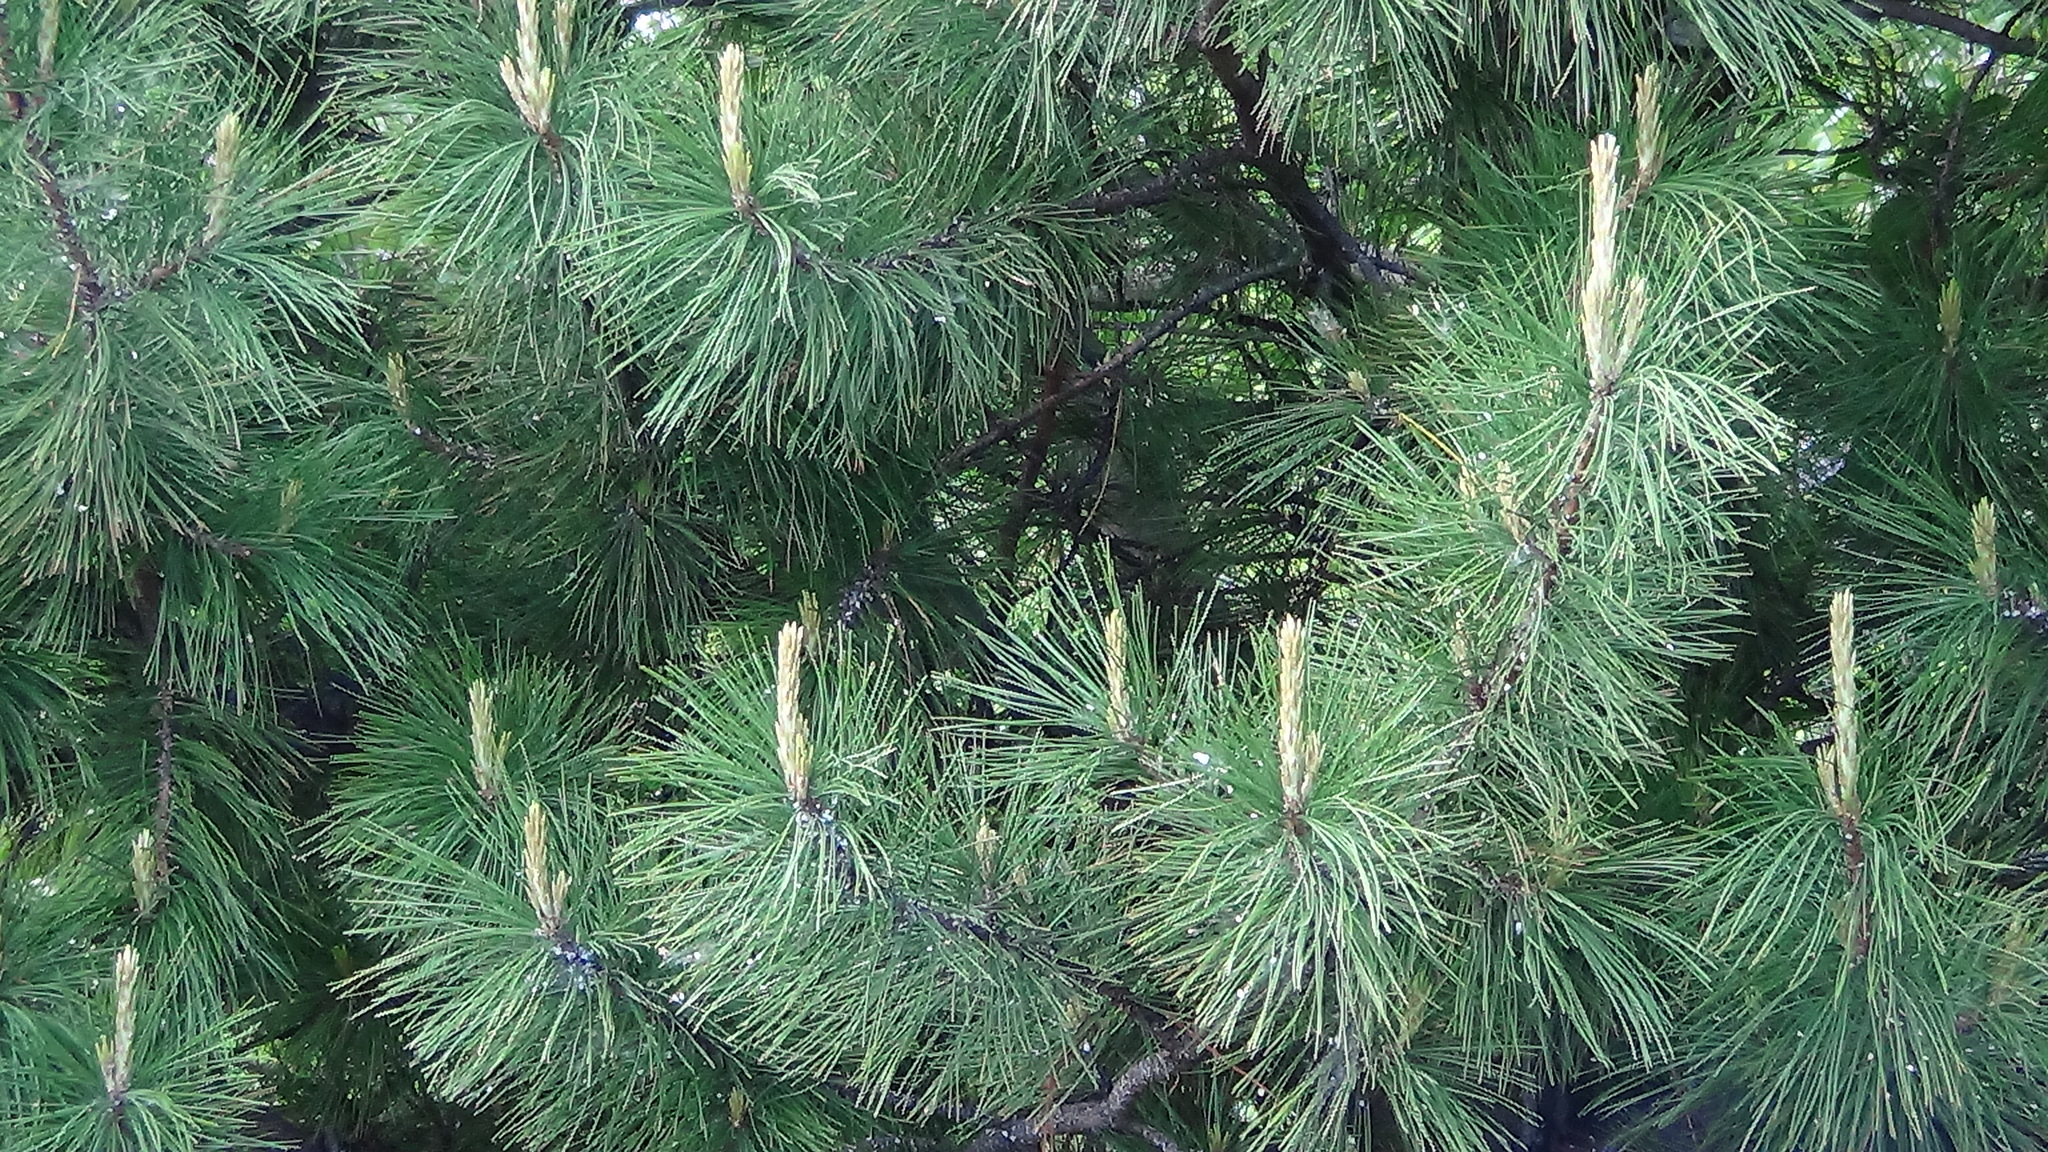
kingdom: Plantae
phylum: Tracheophyta
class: Pinopsida
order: Pinales
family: Pinaceae
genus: Pinus
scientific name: Pinus sibirica
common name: Siberian pine
